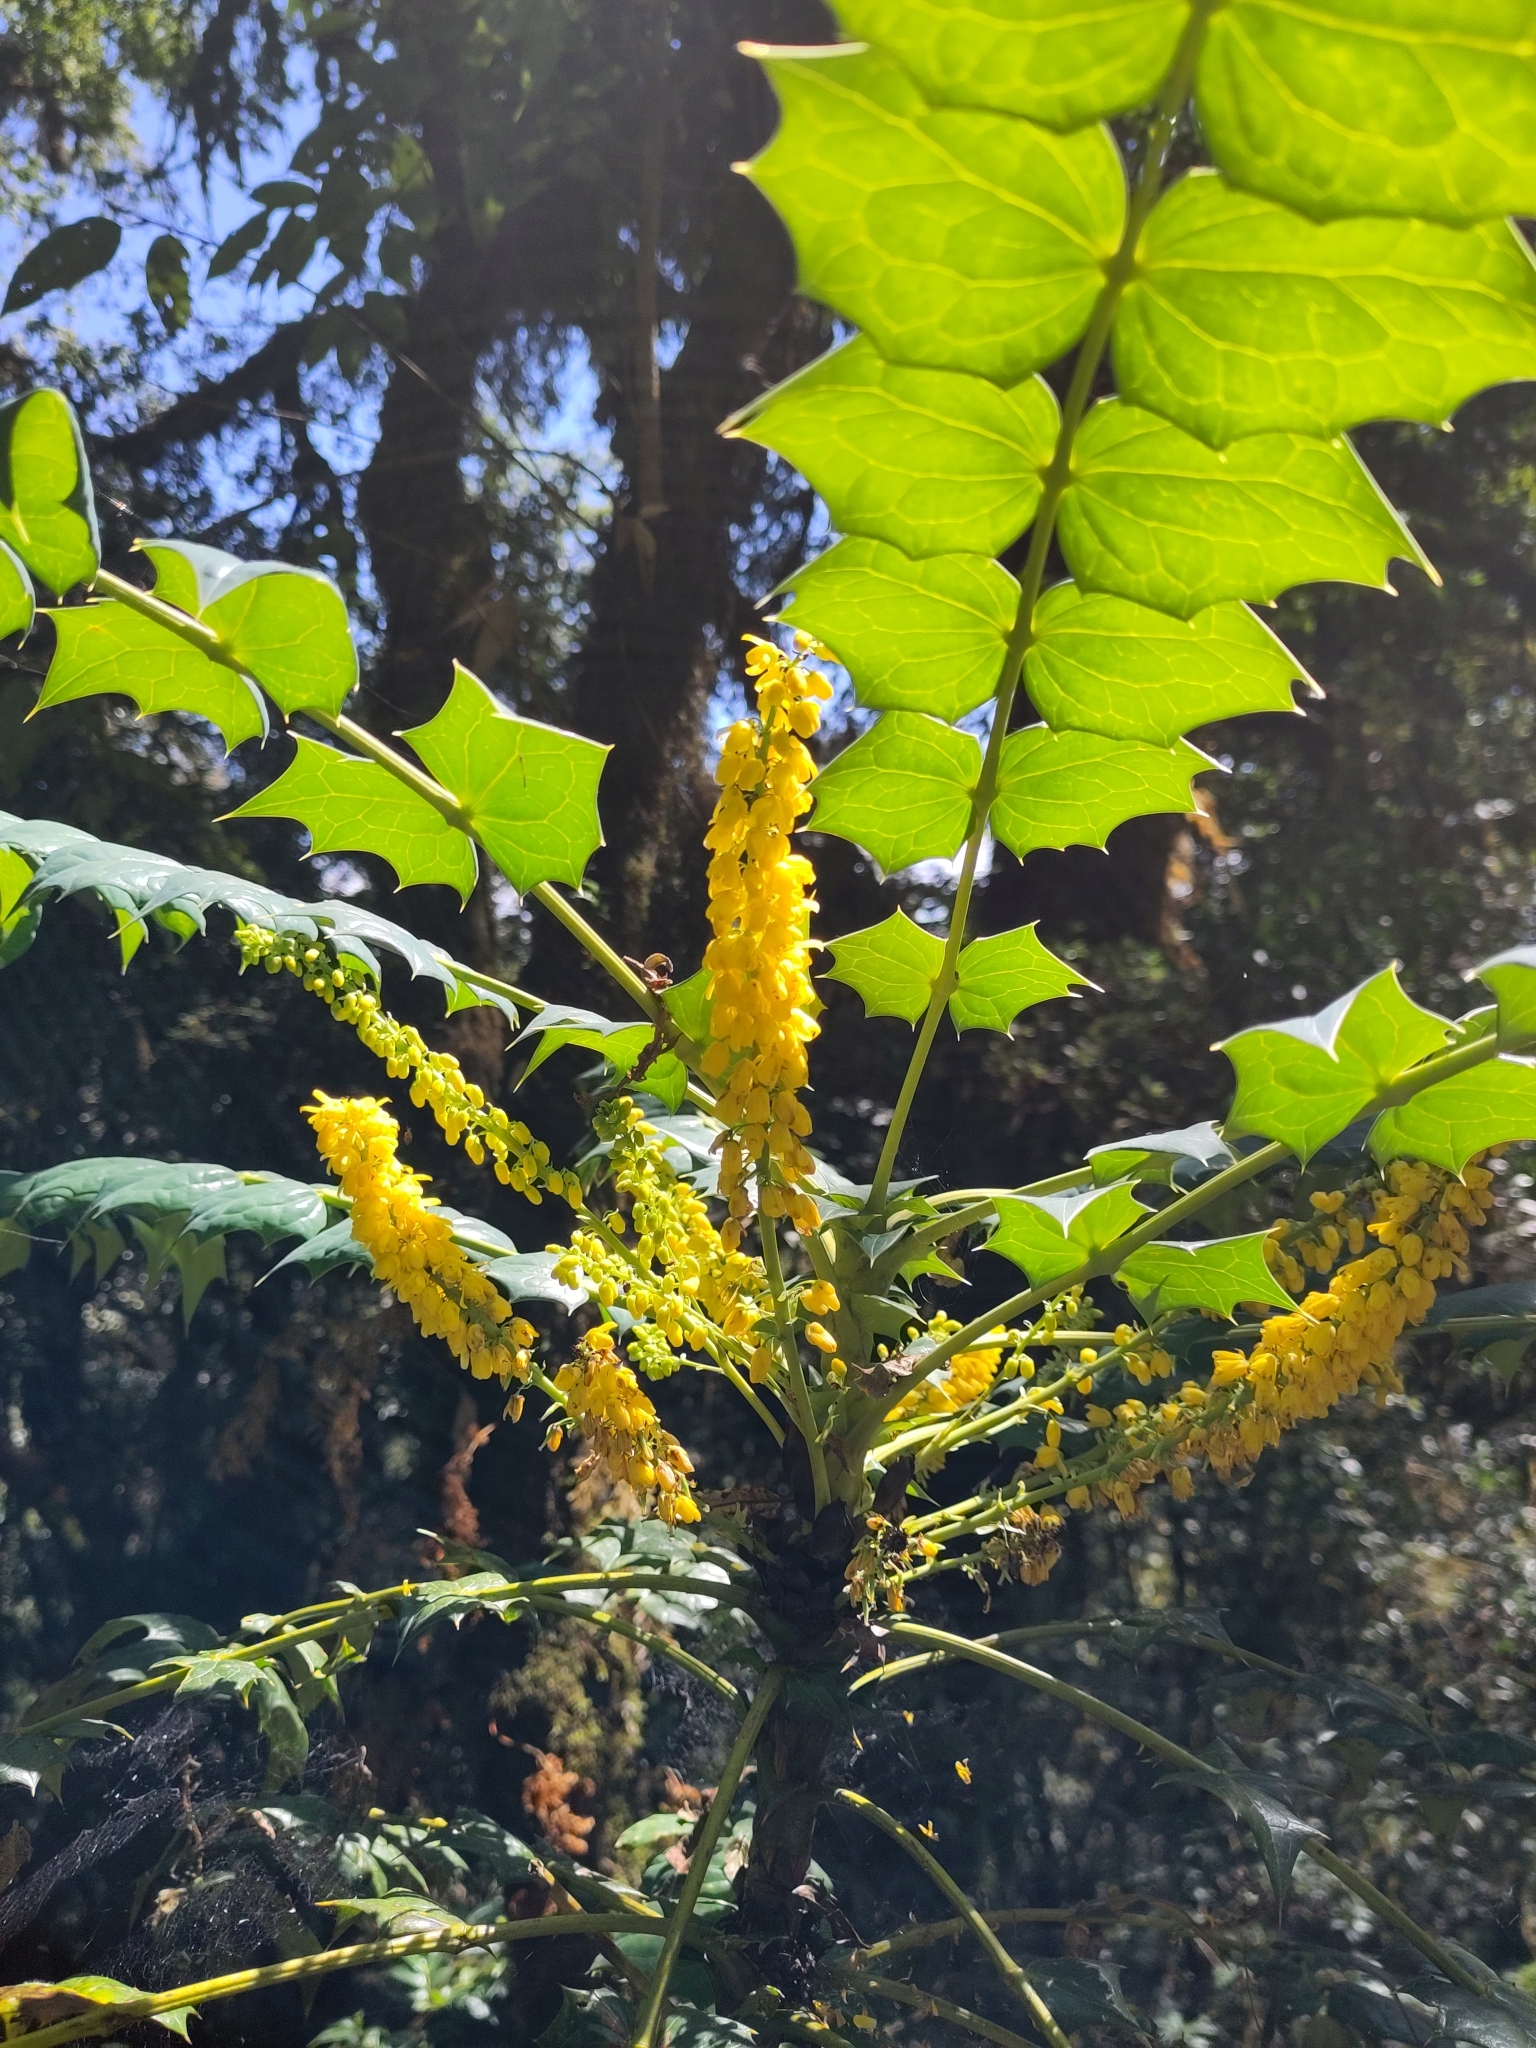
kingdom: Plantae
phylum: Tracheophyta
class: Magnoliopsida
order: Ranunculales
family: Berberidaceae
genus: Mahonia
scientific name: Mahonia napaulensis
